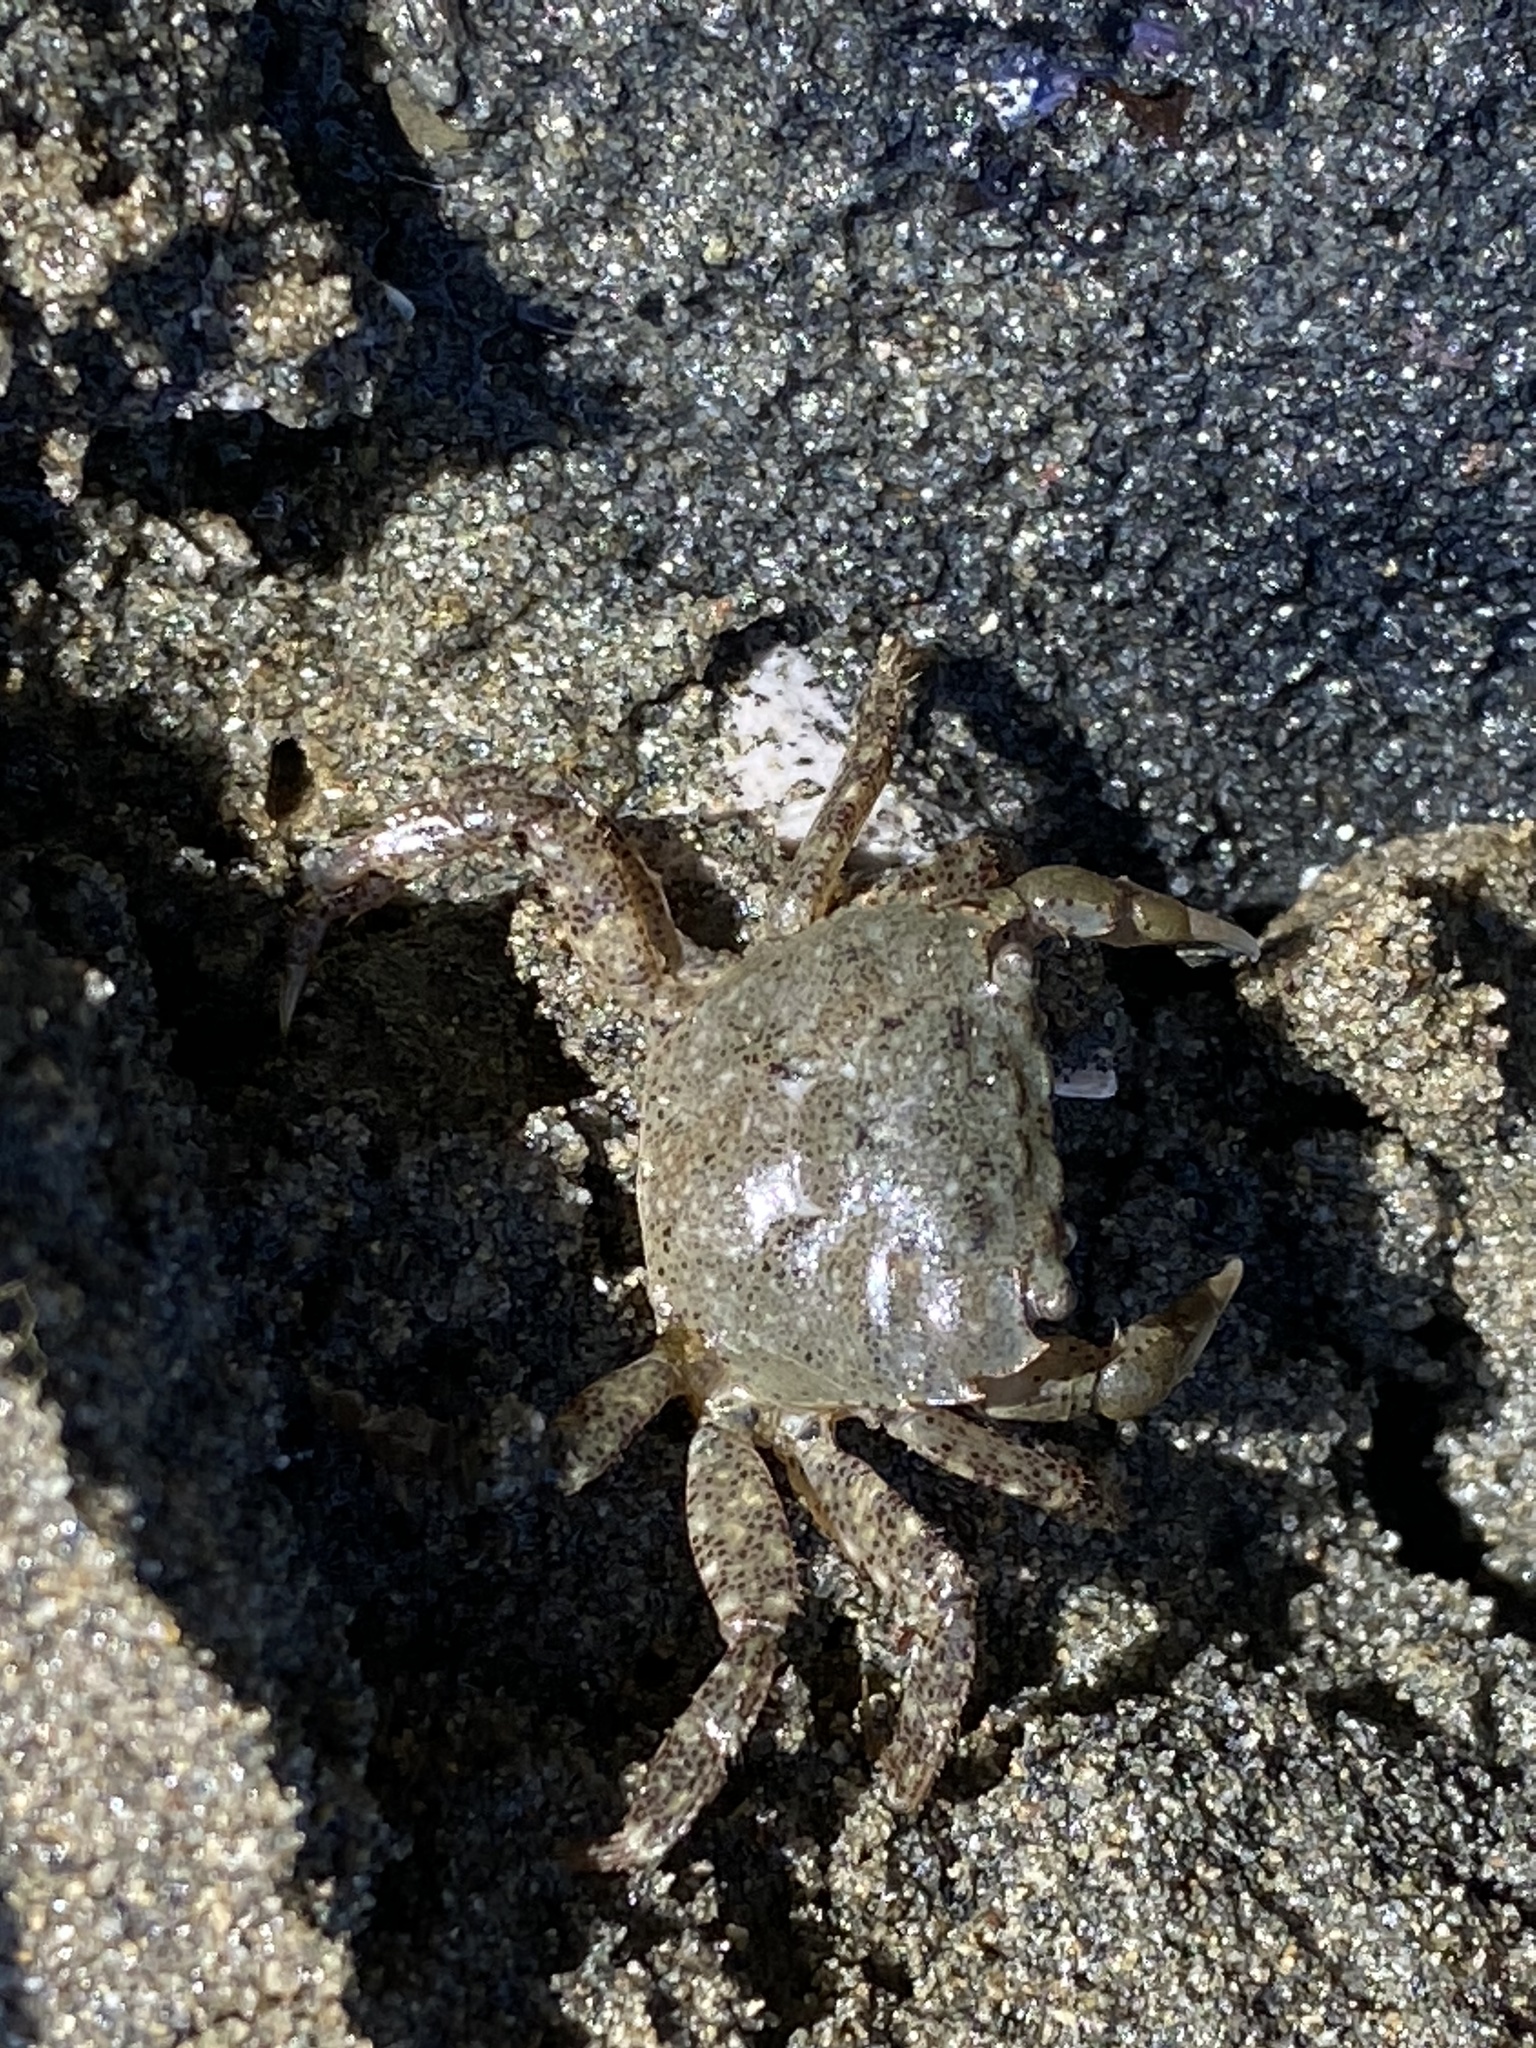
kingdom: Animalia
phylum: Arthropoda
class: Malacostraca
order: Decapoda
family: Varunidae
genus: Hemigrapsus
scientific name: Hemigrapsus oregonensis
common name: Yellow shore crab
